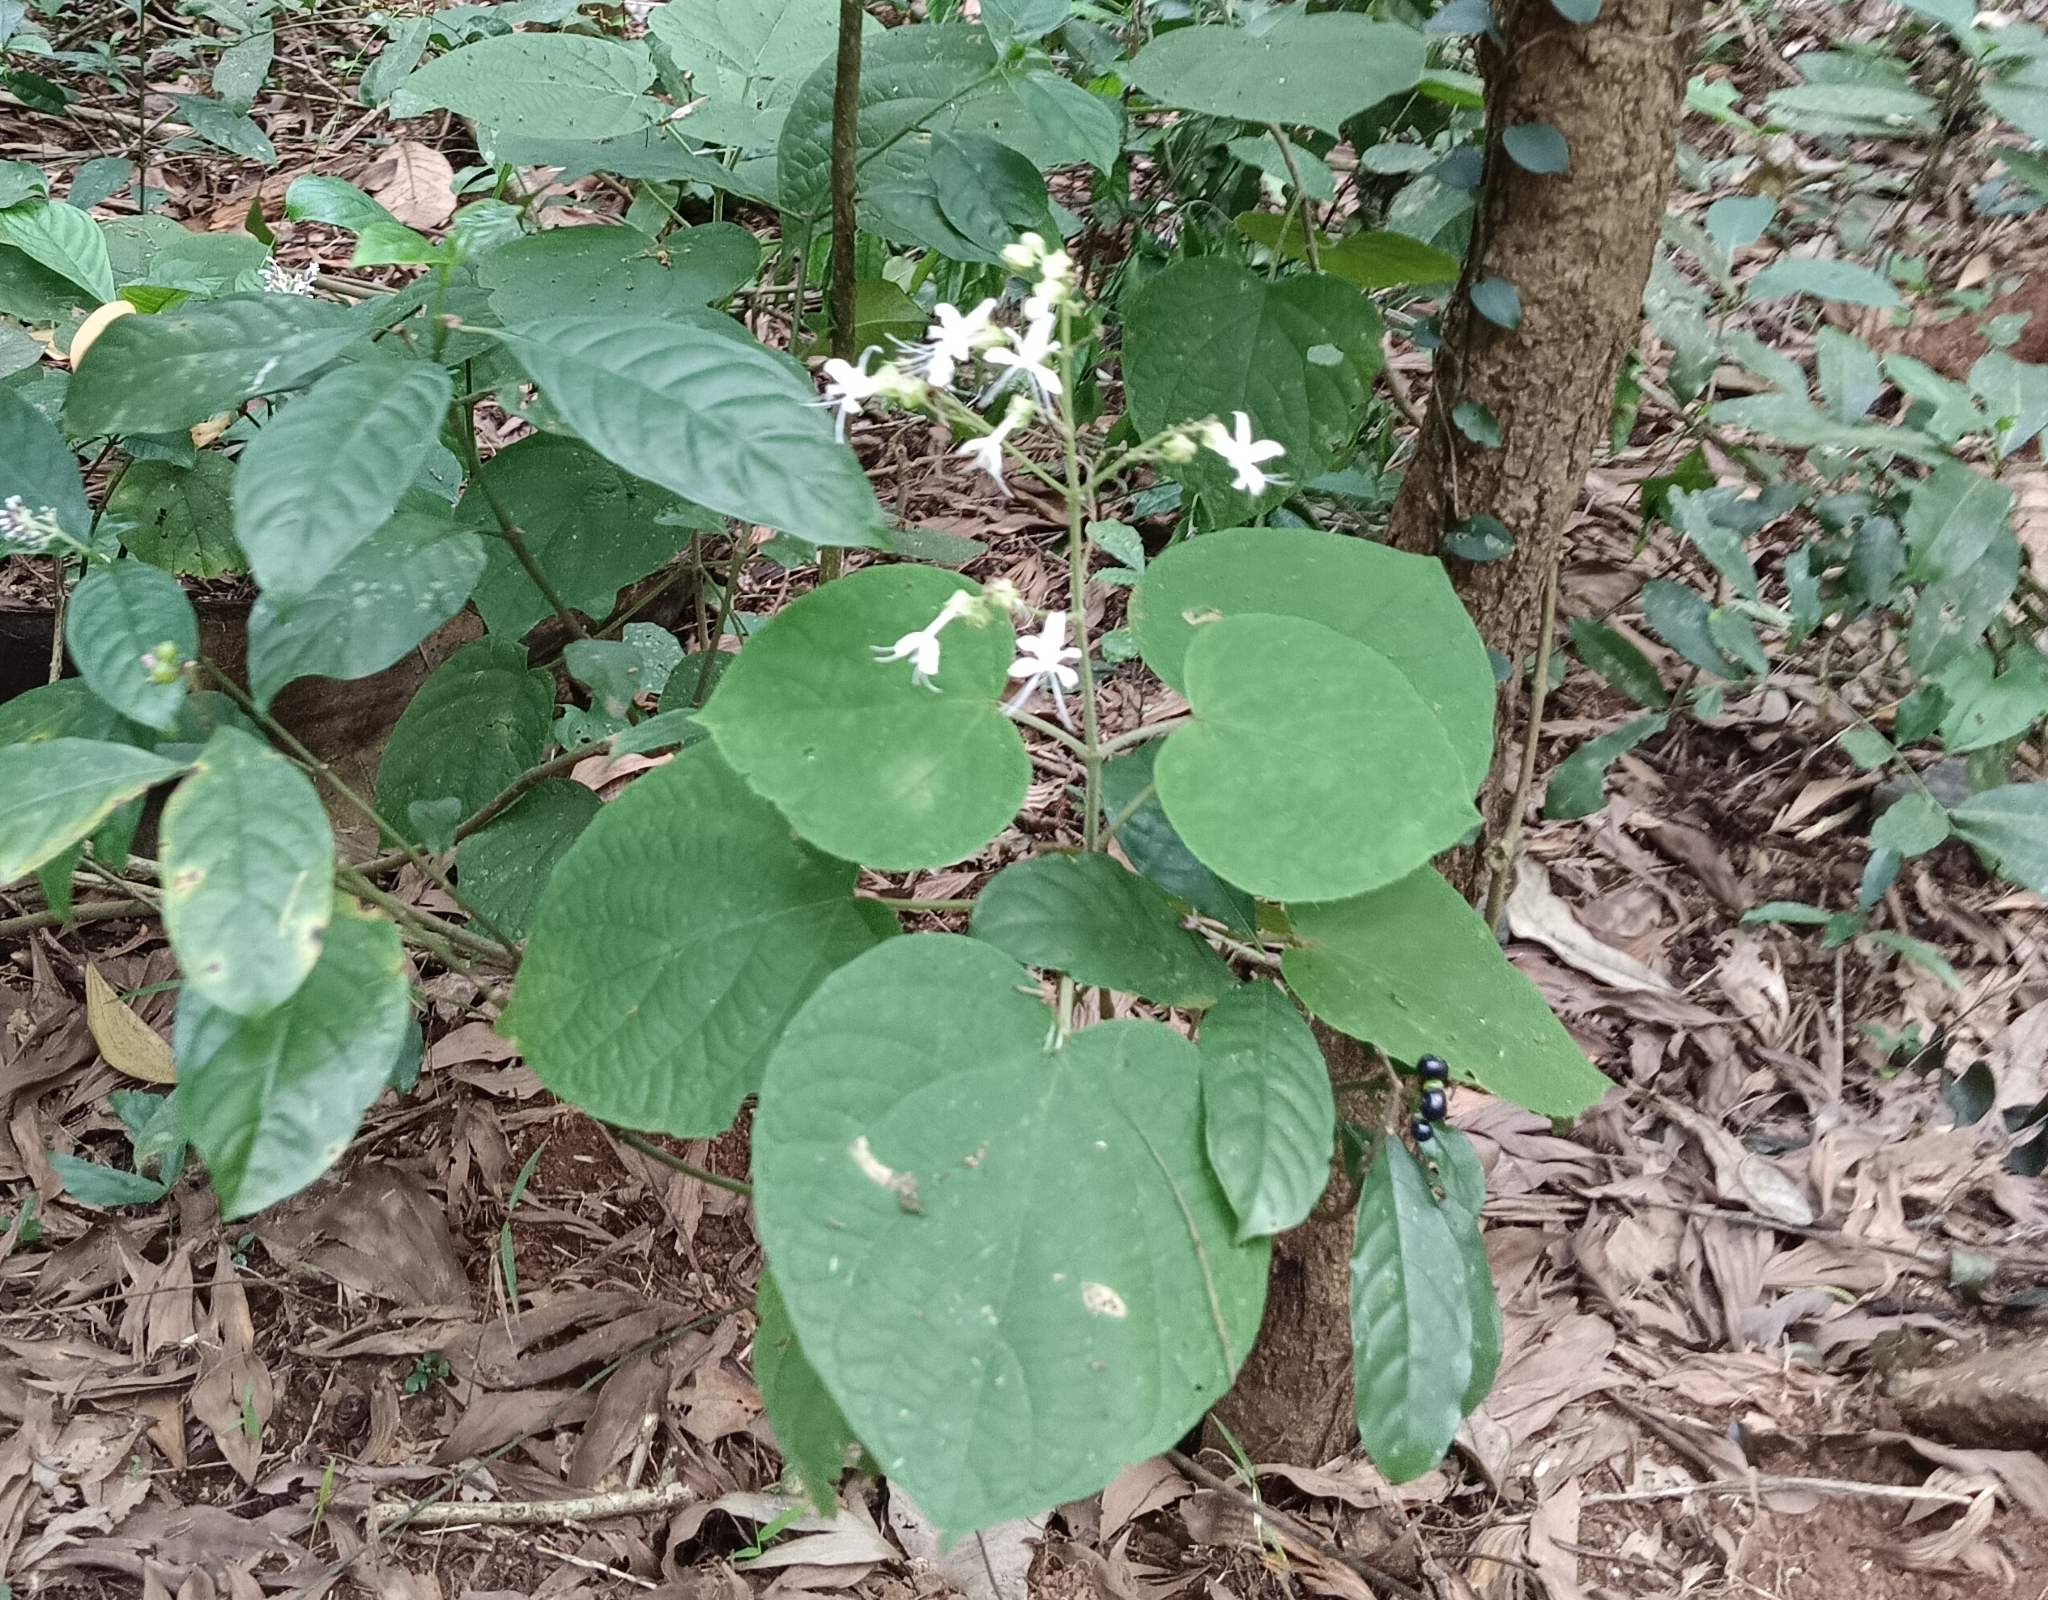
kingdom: Plantae
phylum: Tracheophyta
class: Magnoliopsida
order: Lamiales
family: Lamiaceae
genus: Clerodendrum
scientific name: Clerodendrum infortunatum
